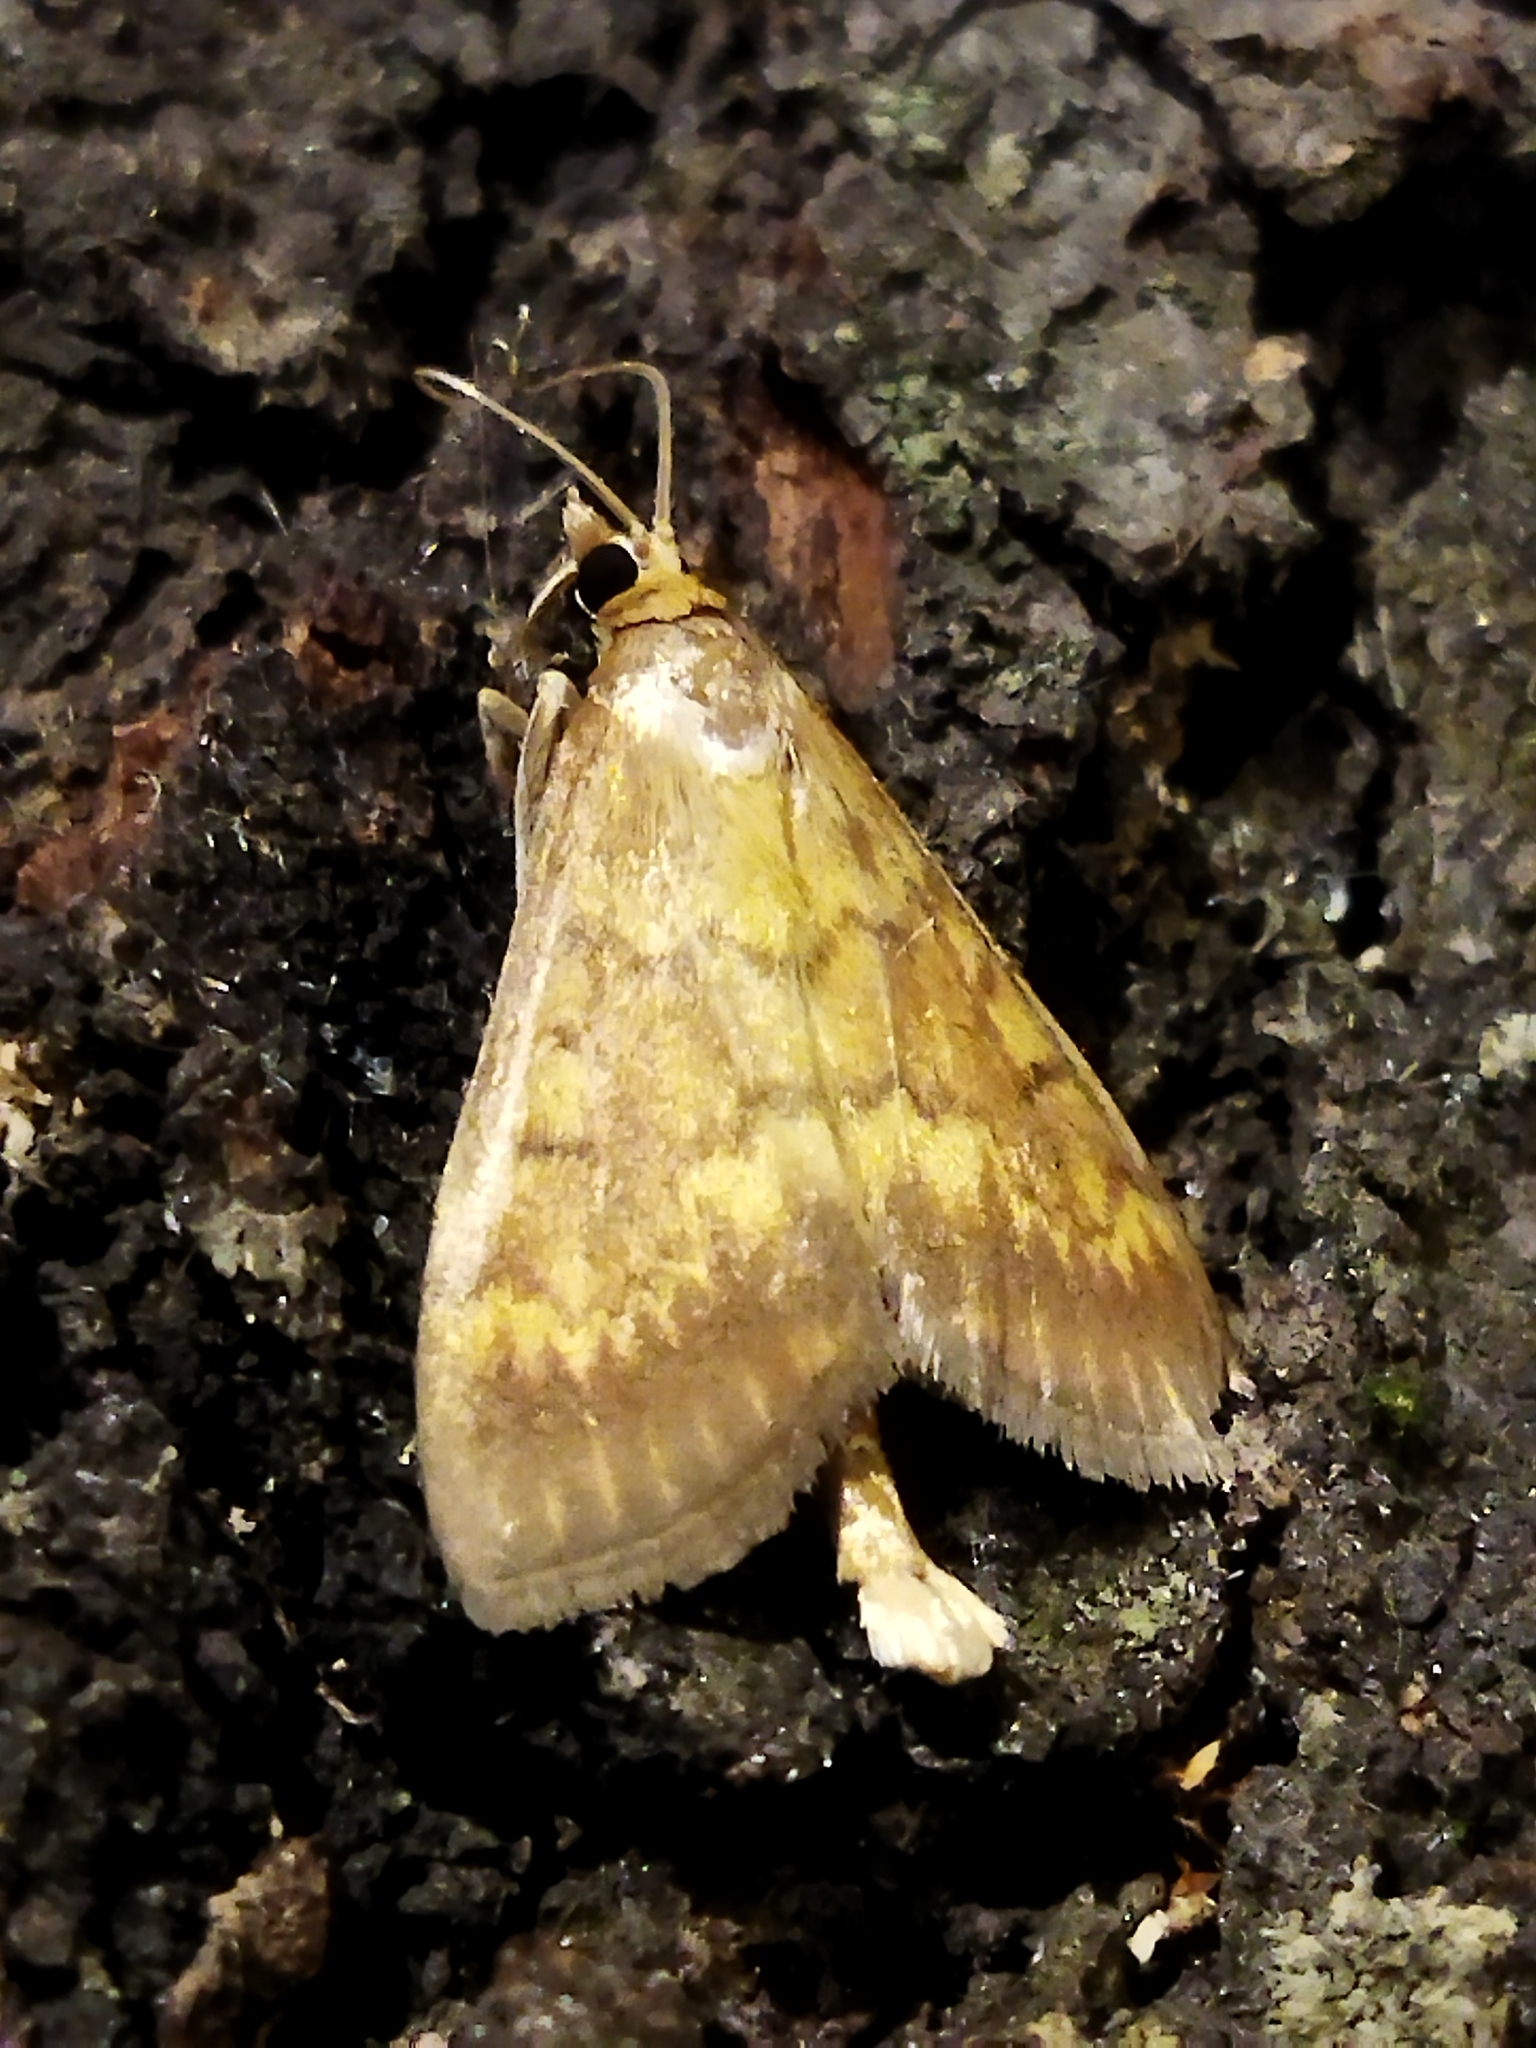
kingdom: Animalia
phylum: Arthropoda
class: Insecta
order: Lepidoptera
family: Crambidae
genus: Ecpyrrhorrhoe
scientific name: Ecpyrrhorrhoe rubiginalis
